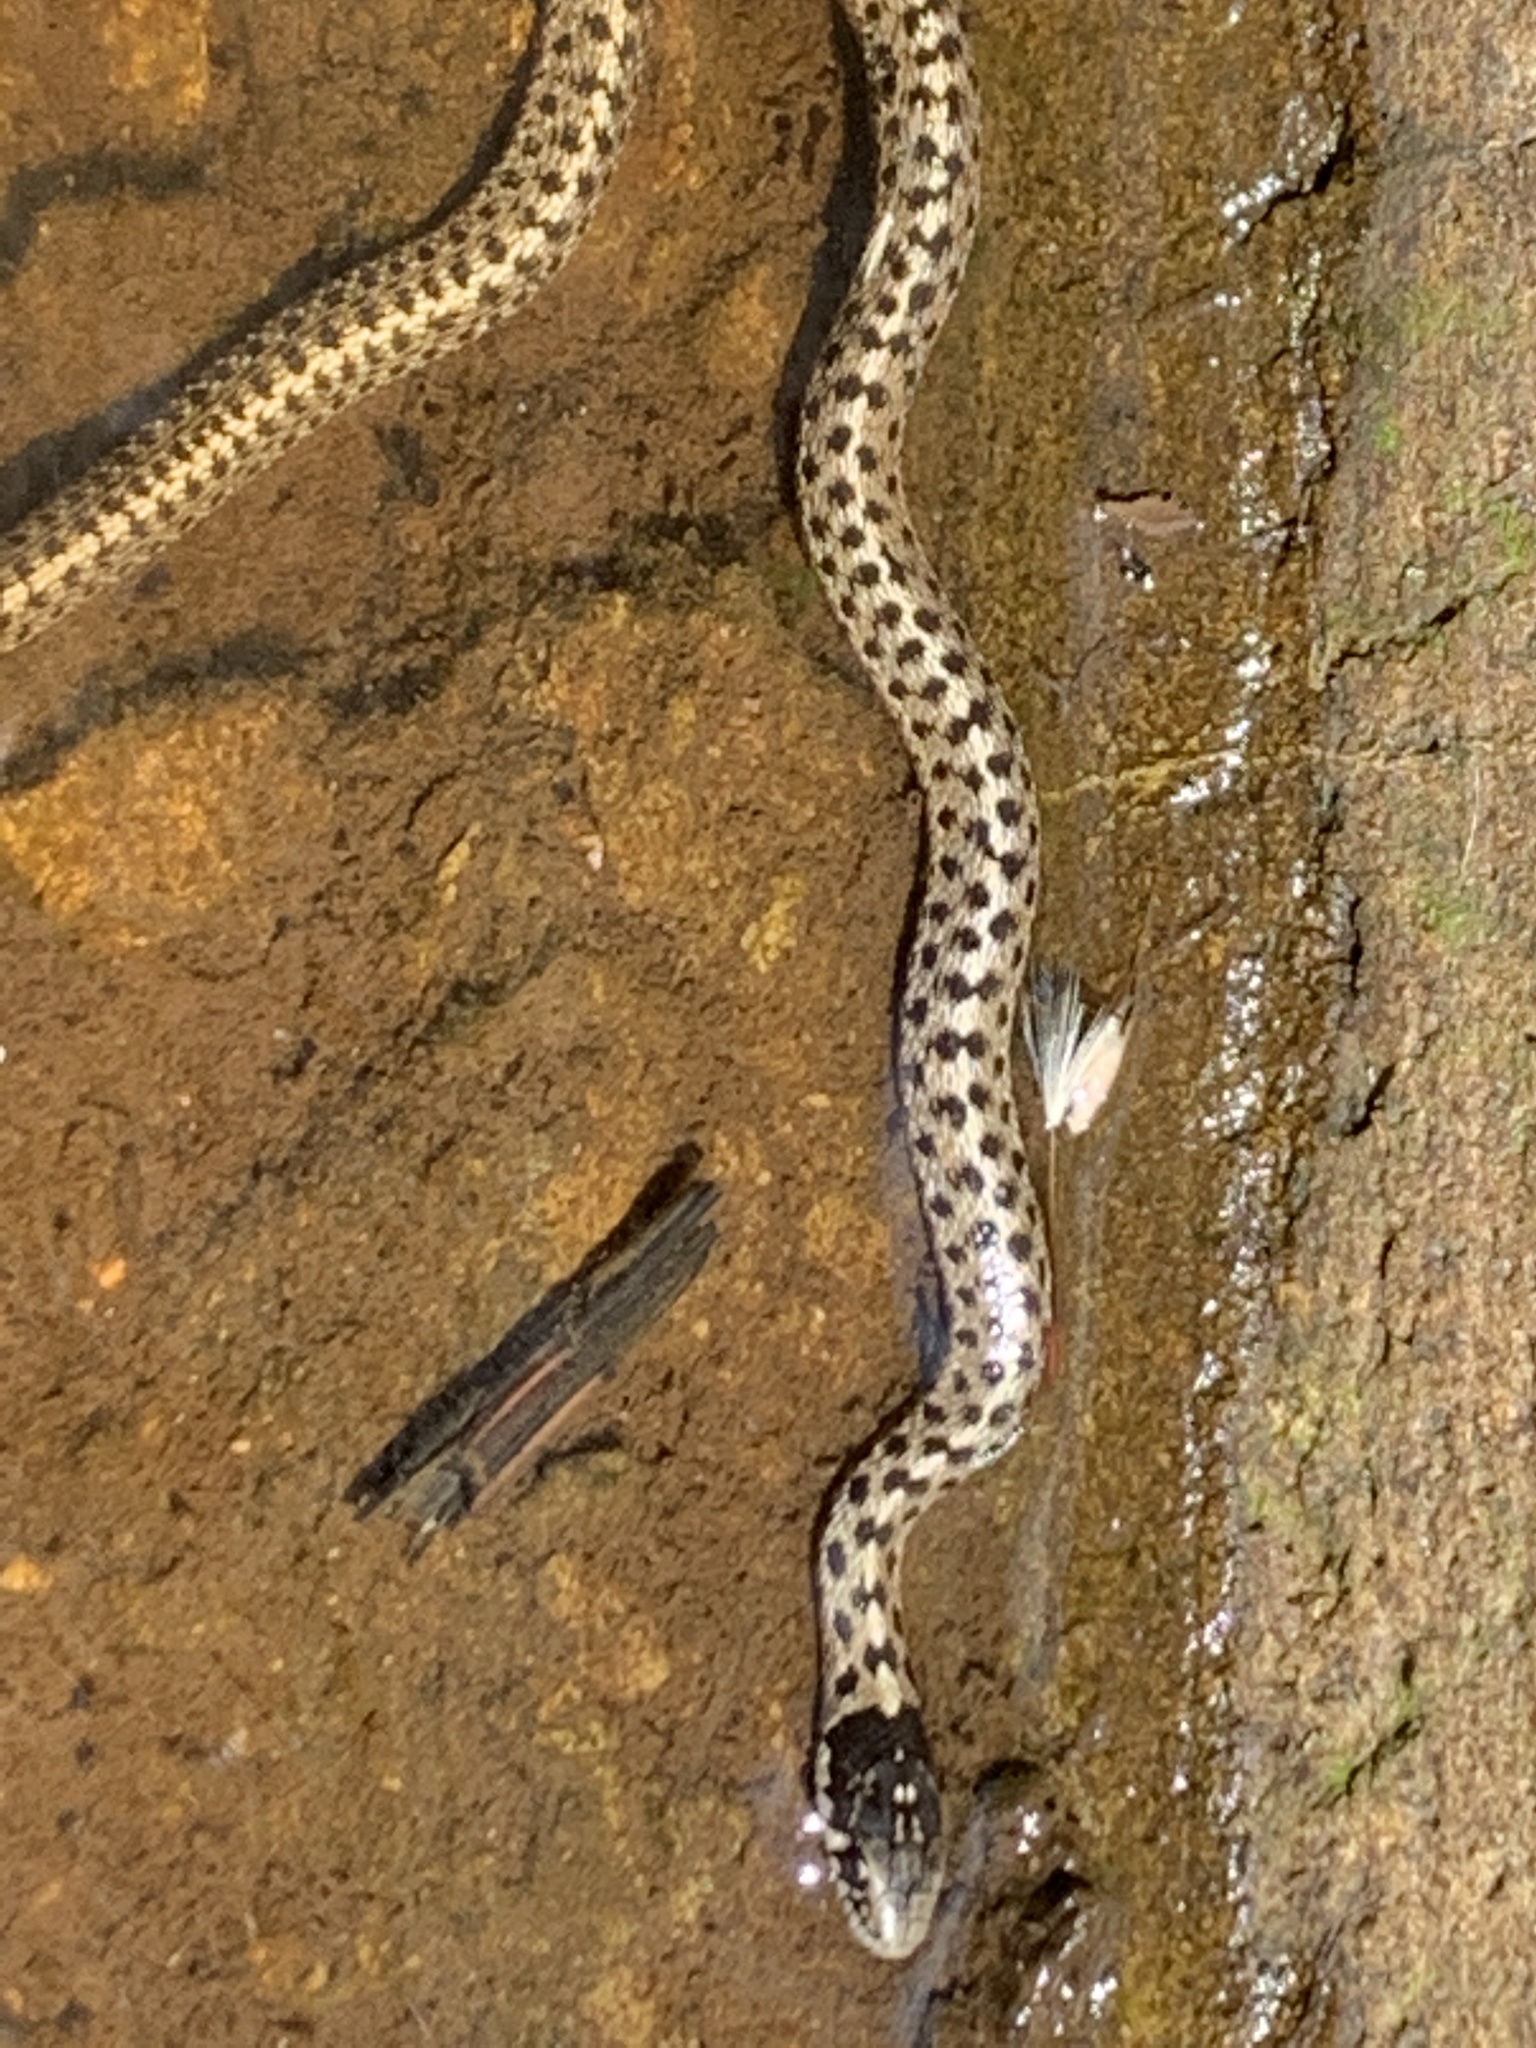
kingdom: Animalia
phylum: Chordata
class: Squamata
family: Colubridae
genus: Thamnophis
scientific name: Thamnophis elegans
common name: Western terrestrial garter snake
